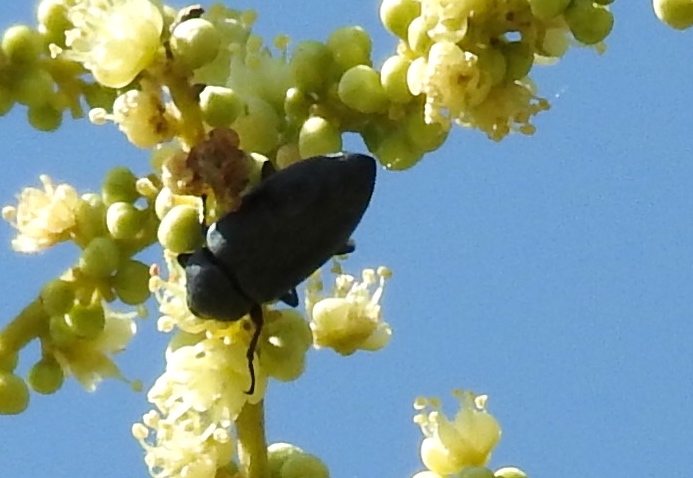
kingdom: Animalia
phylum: Arthropoda
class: Insecta
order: Coleoptera
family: Tenebrionidae
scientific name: Tenebrionidae
